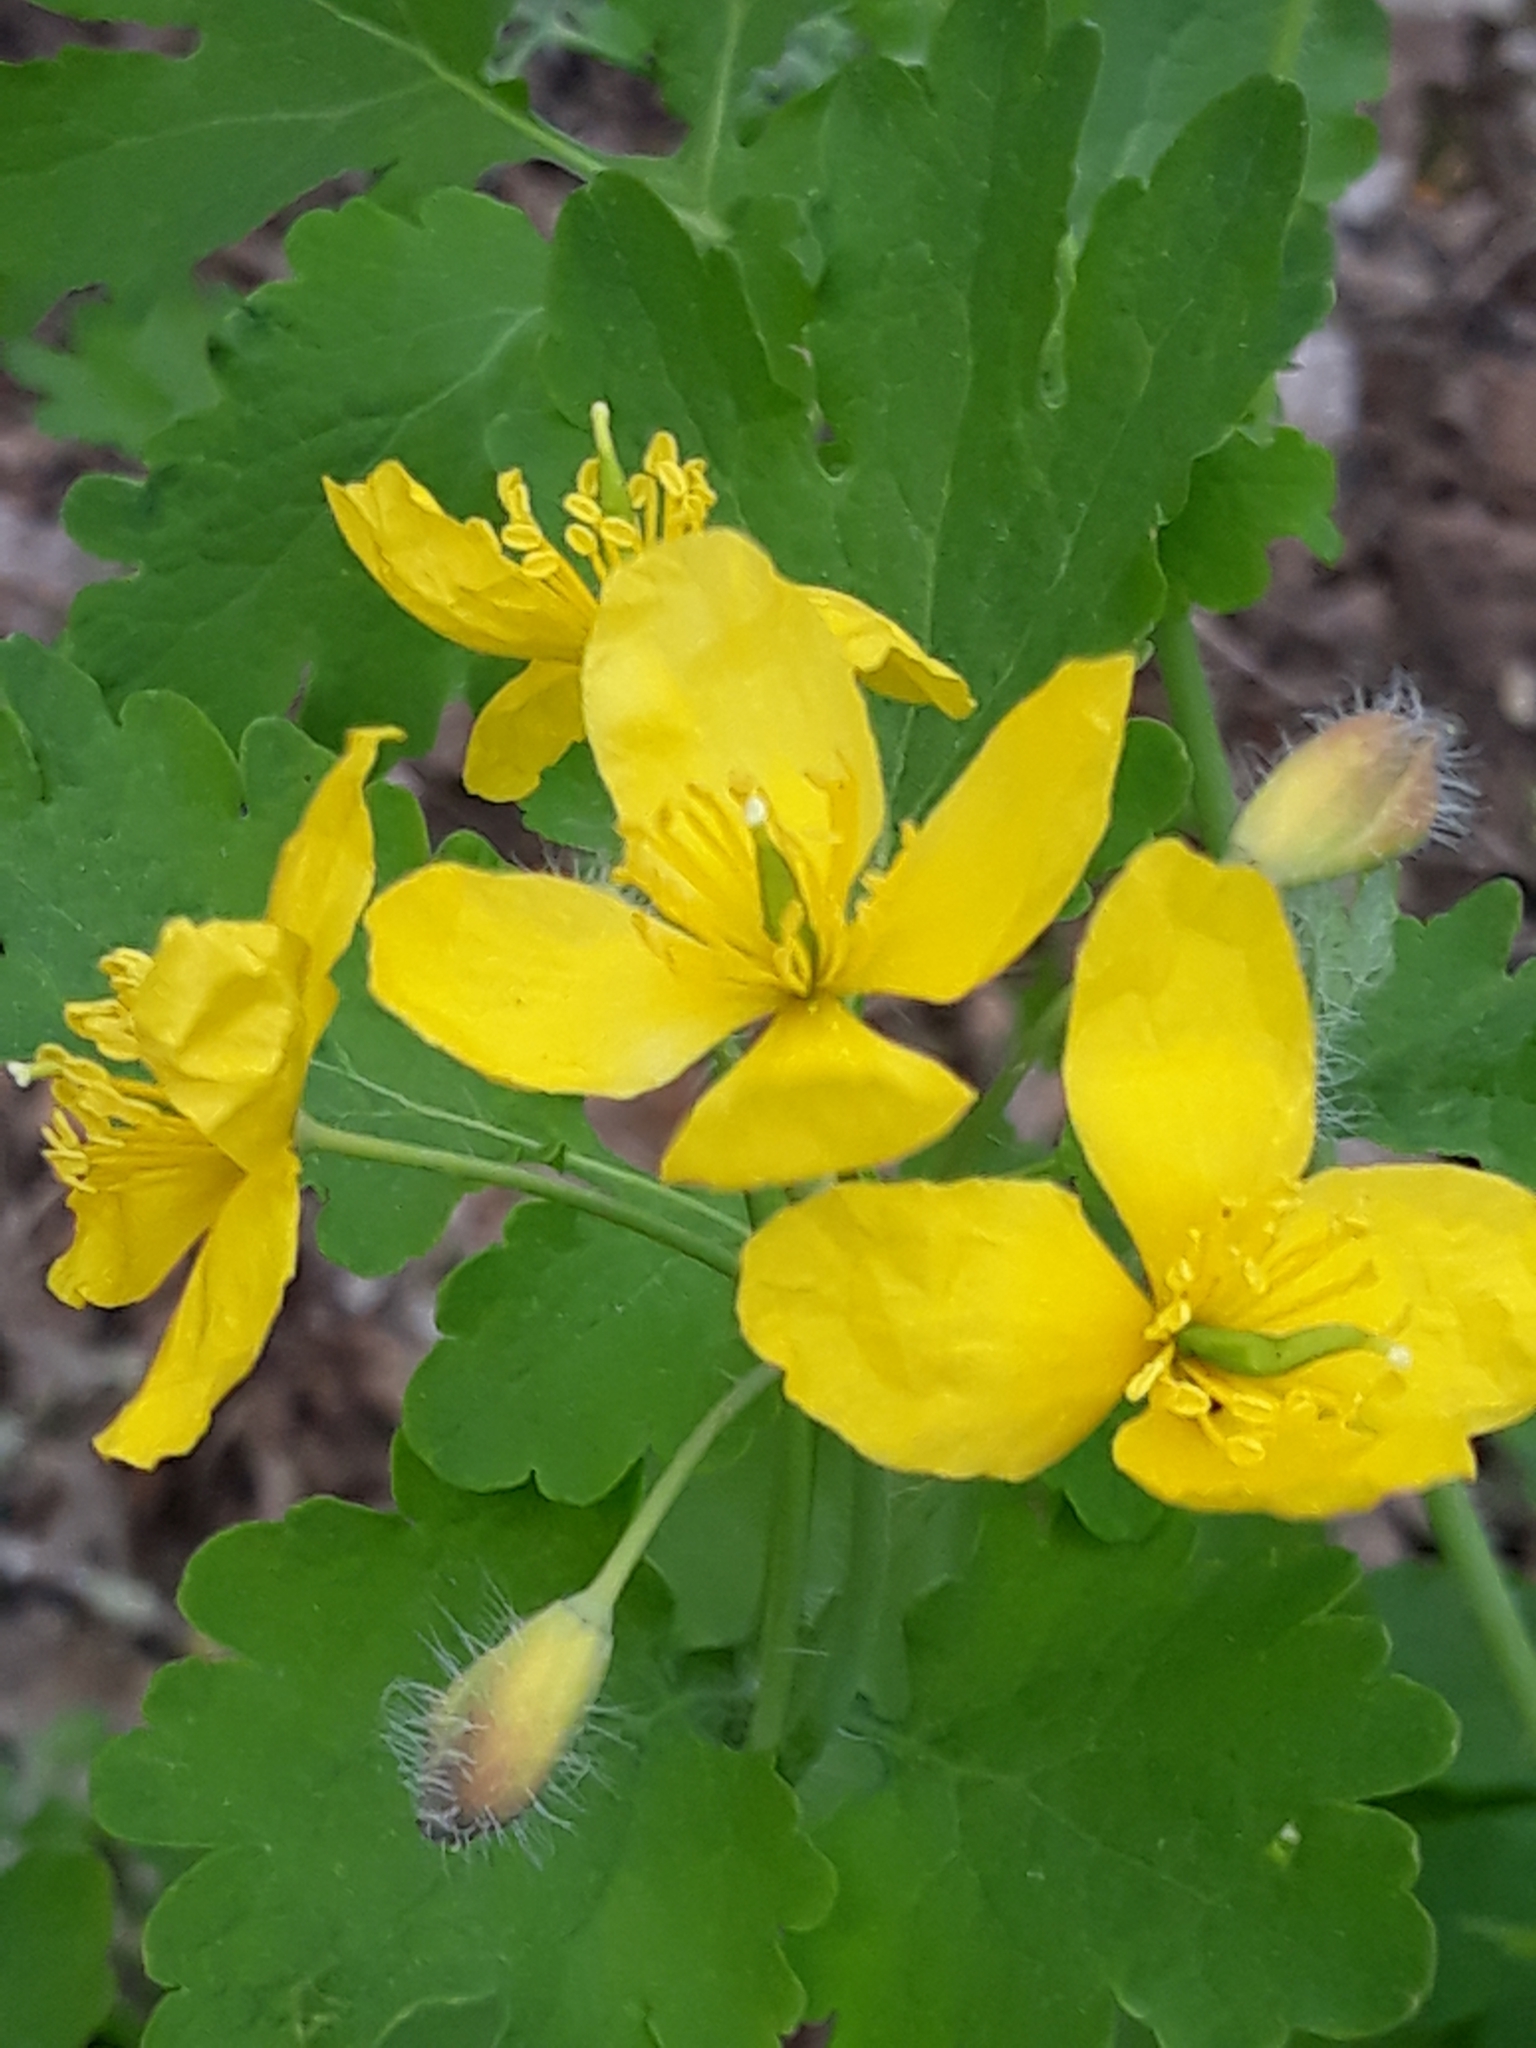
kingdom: Plantae
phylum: Tracheophyta
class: Magnoliopsida
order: Ranunculales
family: Papaveraceae
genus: Chelidonium
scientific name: Chelidonium majus
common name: Greater celandine
